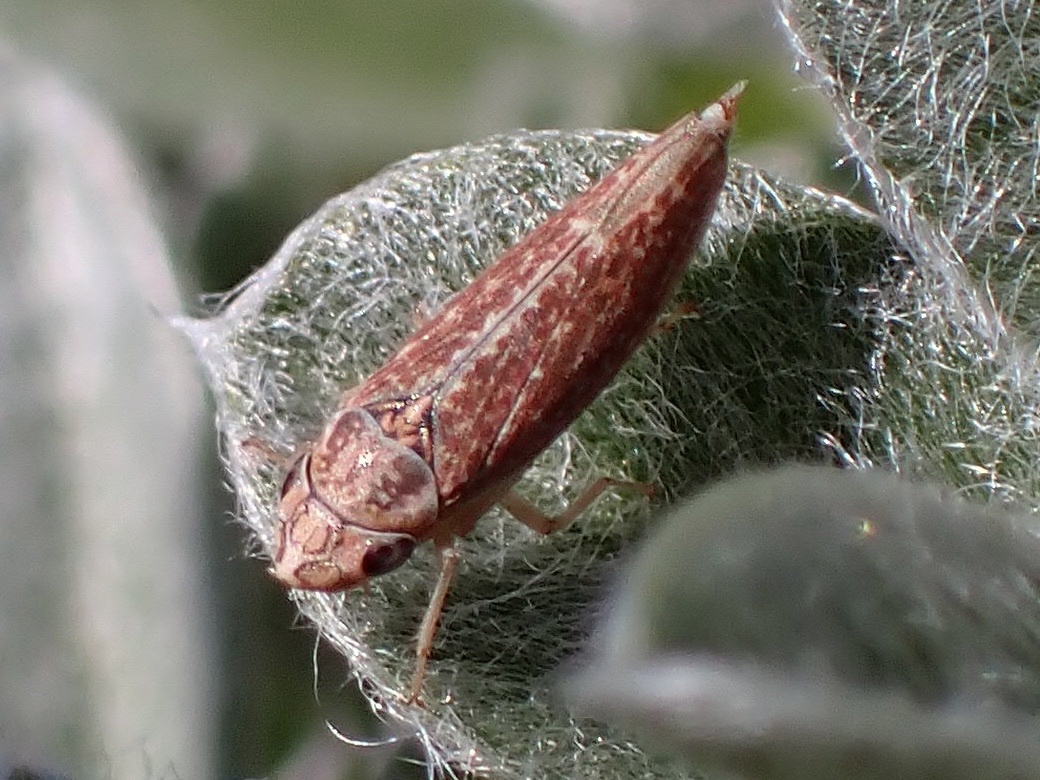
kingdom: Animalia
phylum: Arthropoda
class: Insecta
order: Hemiptera
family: Cicadellidae
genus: Neokolla
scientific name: Neokolla bispinosa
